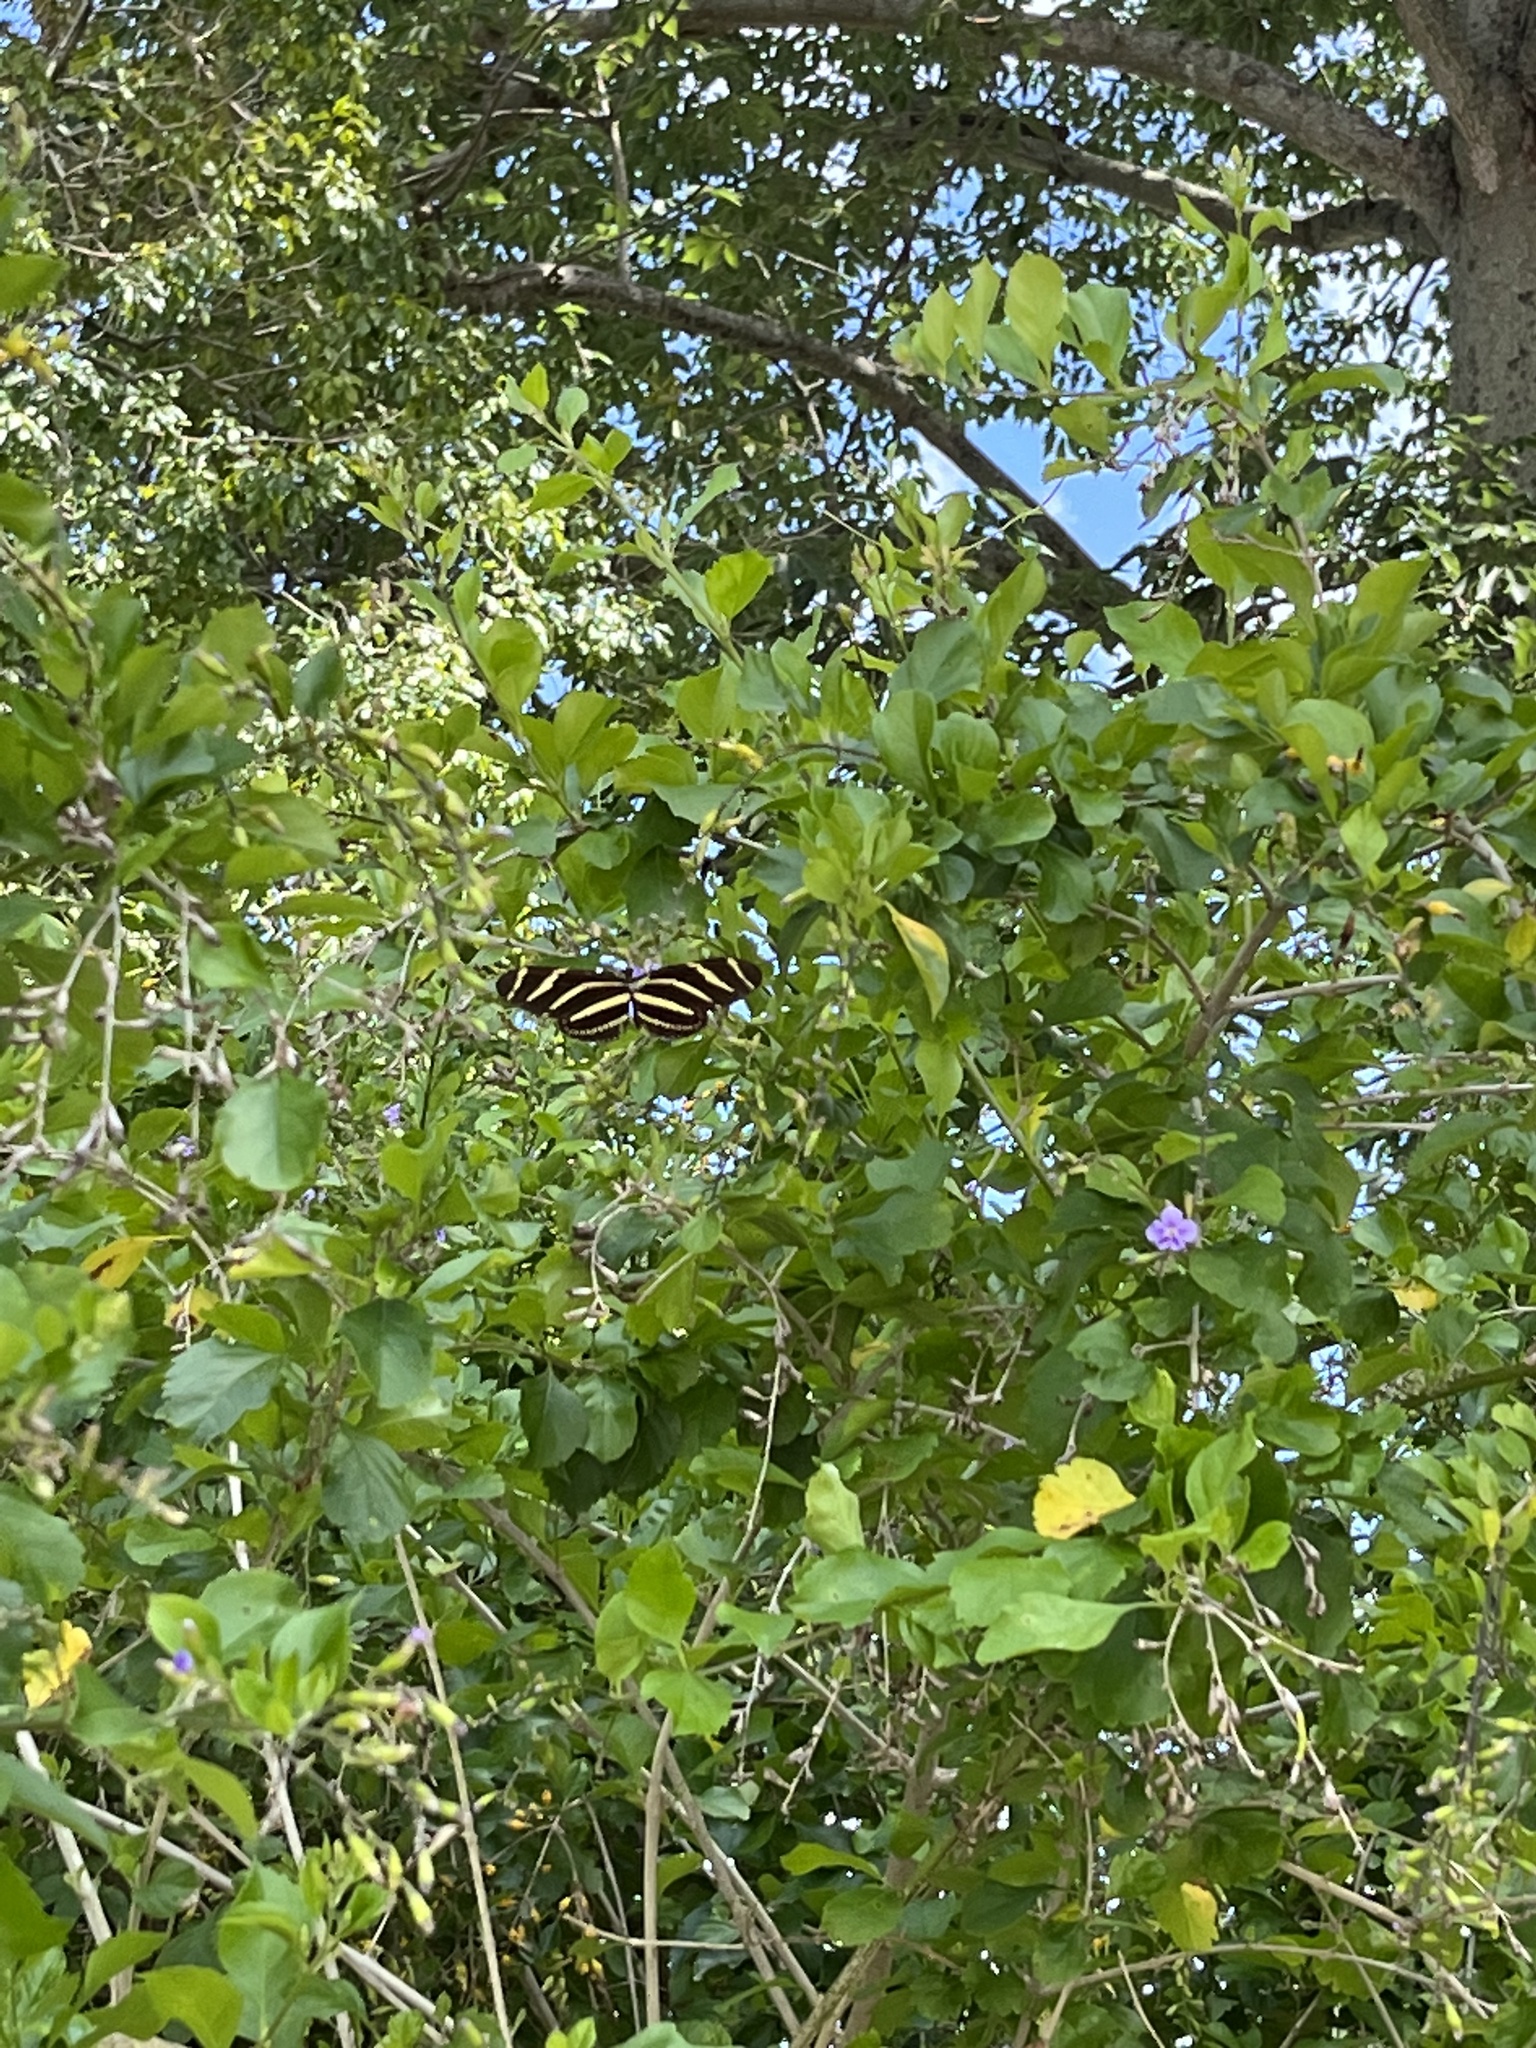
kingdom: Animalia
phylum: Arthropoda
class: Insecta
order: Lepidoptera
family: Nymphalidae
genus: Heliconius
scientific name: Heliconius charithonia
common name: Zebra long wing
